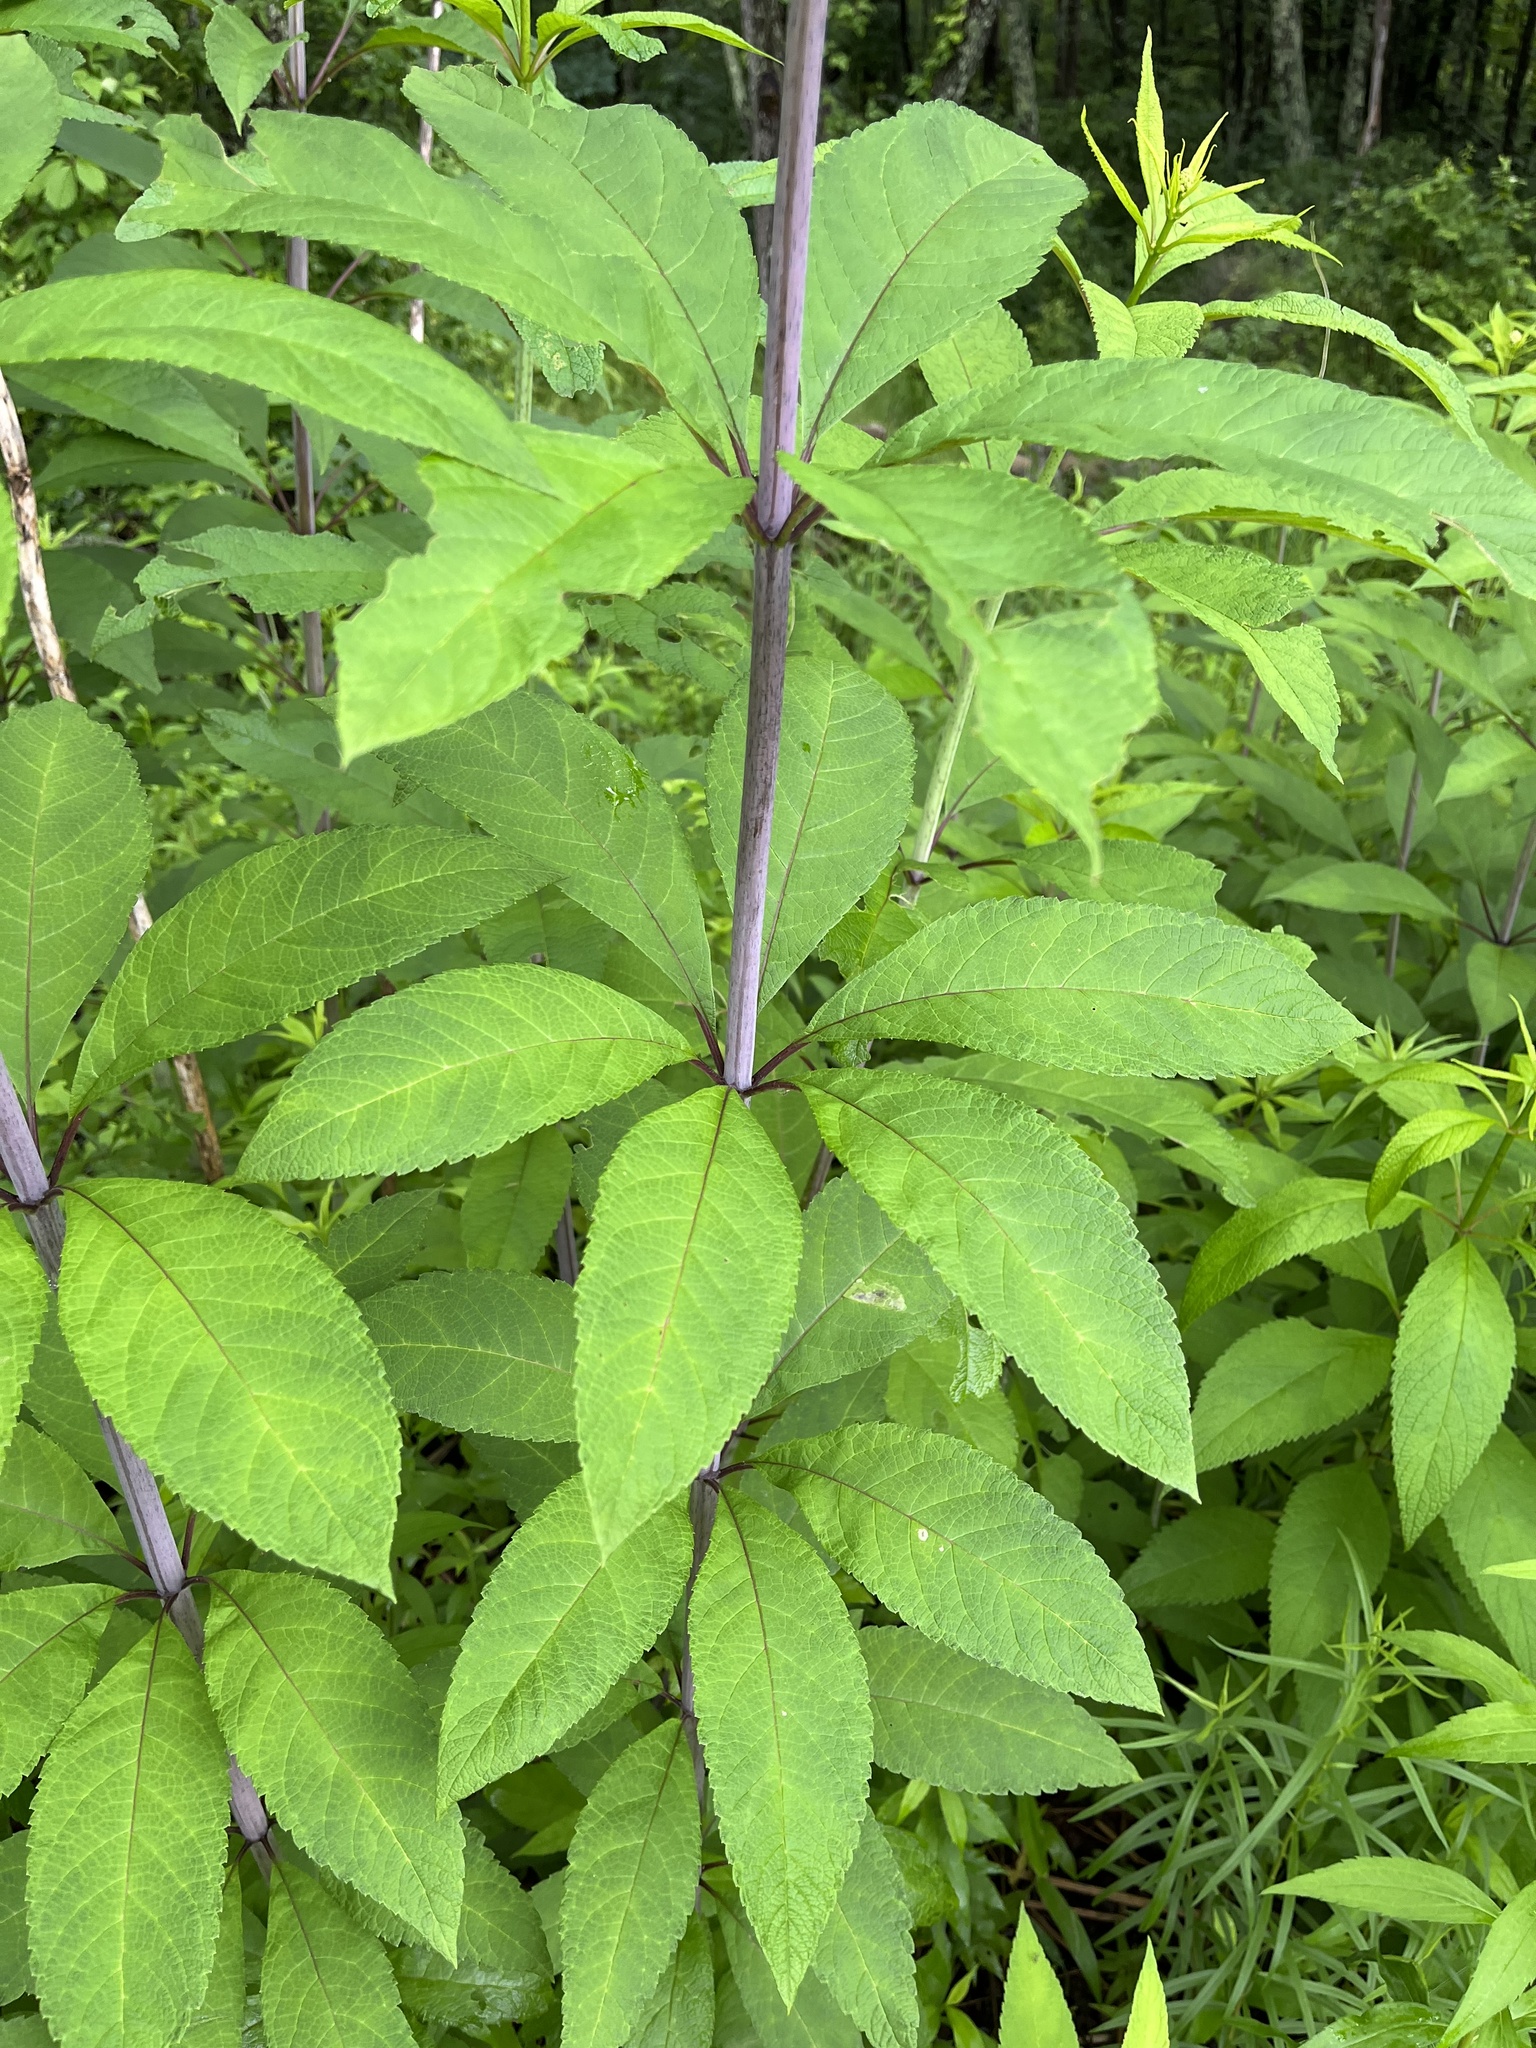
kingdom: Plantae
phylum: Tracheophyta
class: Magnoliopsida
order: Asterales
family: Asteraceae
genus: Eutrochium
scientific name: Eutrochium fistulosum
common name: Trumpetweed
